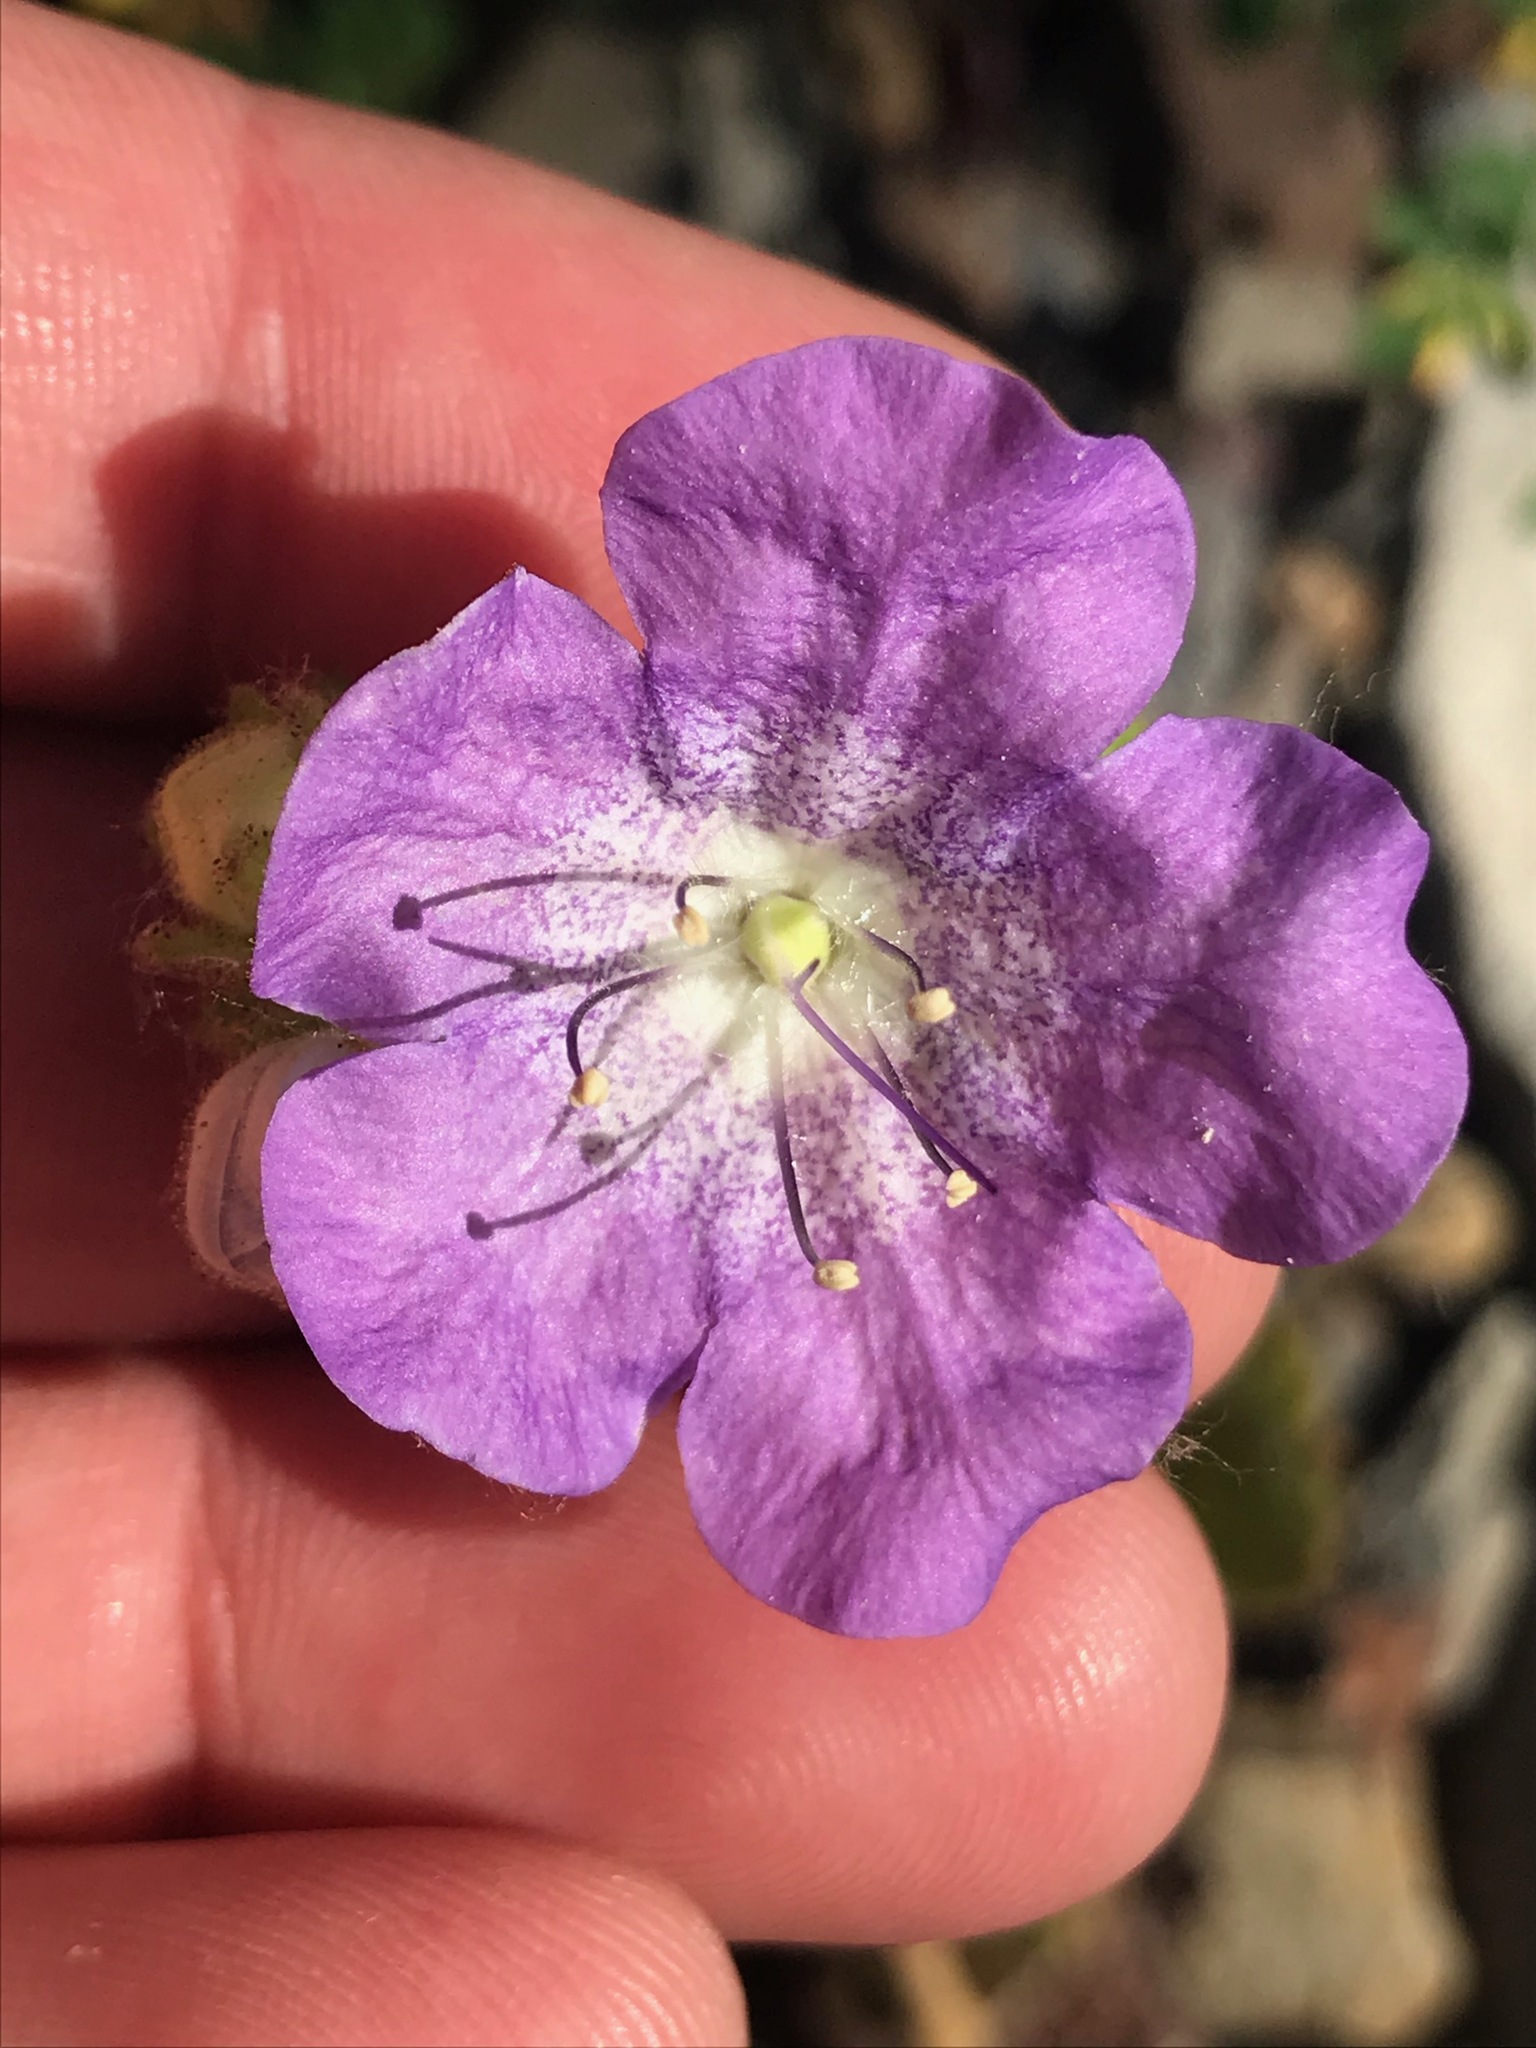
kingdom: Plantae
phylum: Tracheophyta
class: Magnoliopsida
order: Boraginales
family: Hydrophyllaceae
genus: Phacelia
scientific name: Phacelia grandiflora
